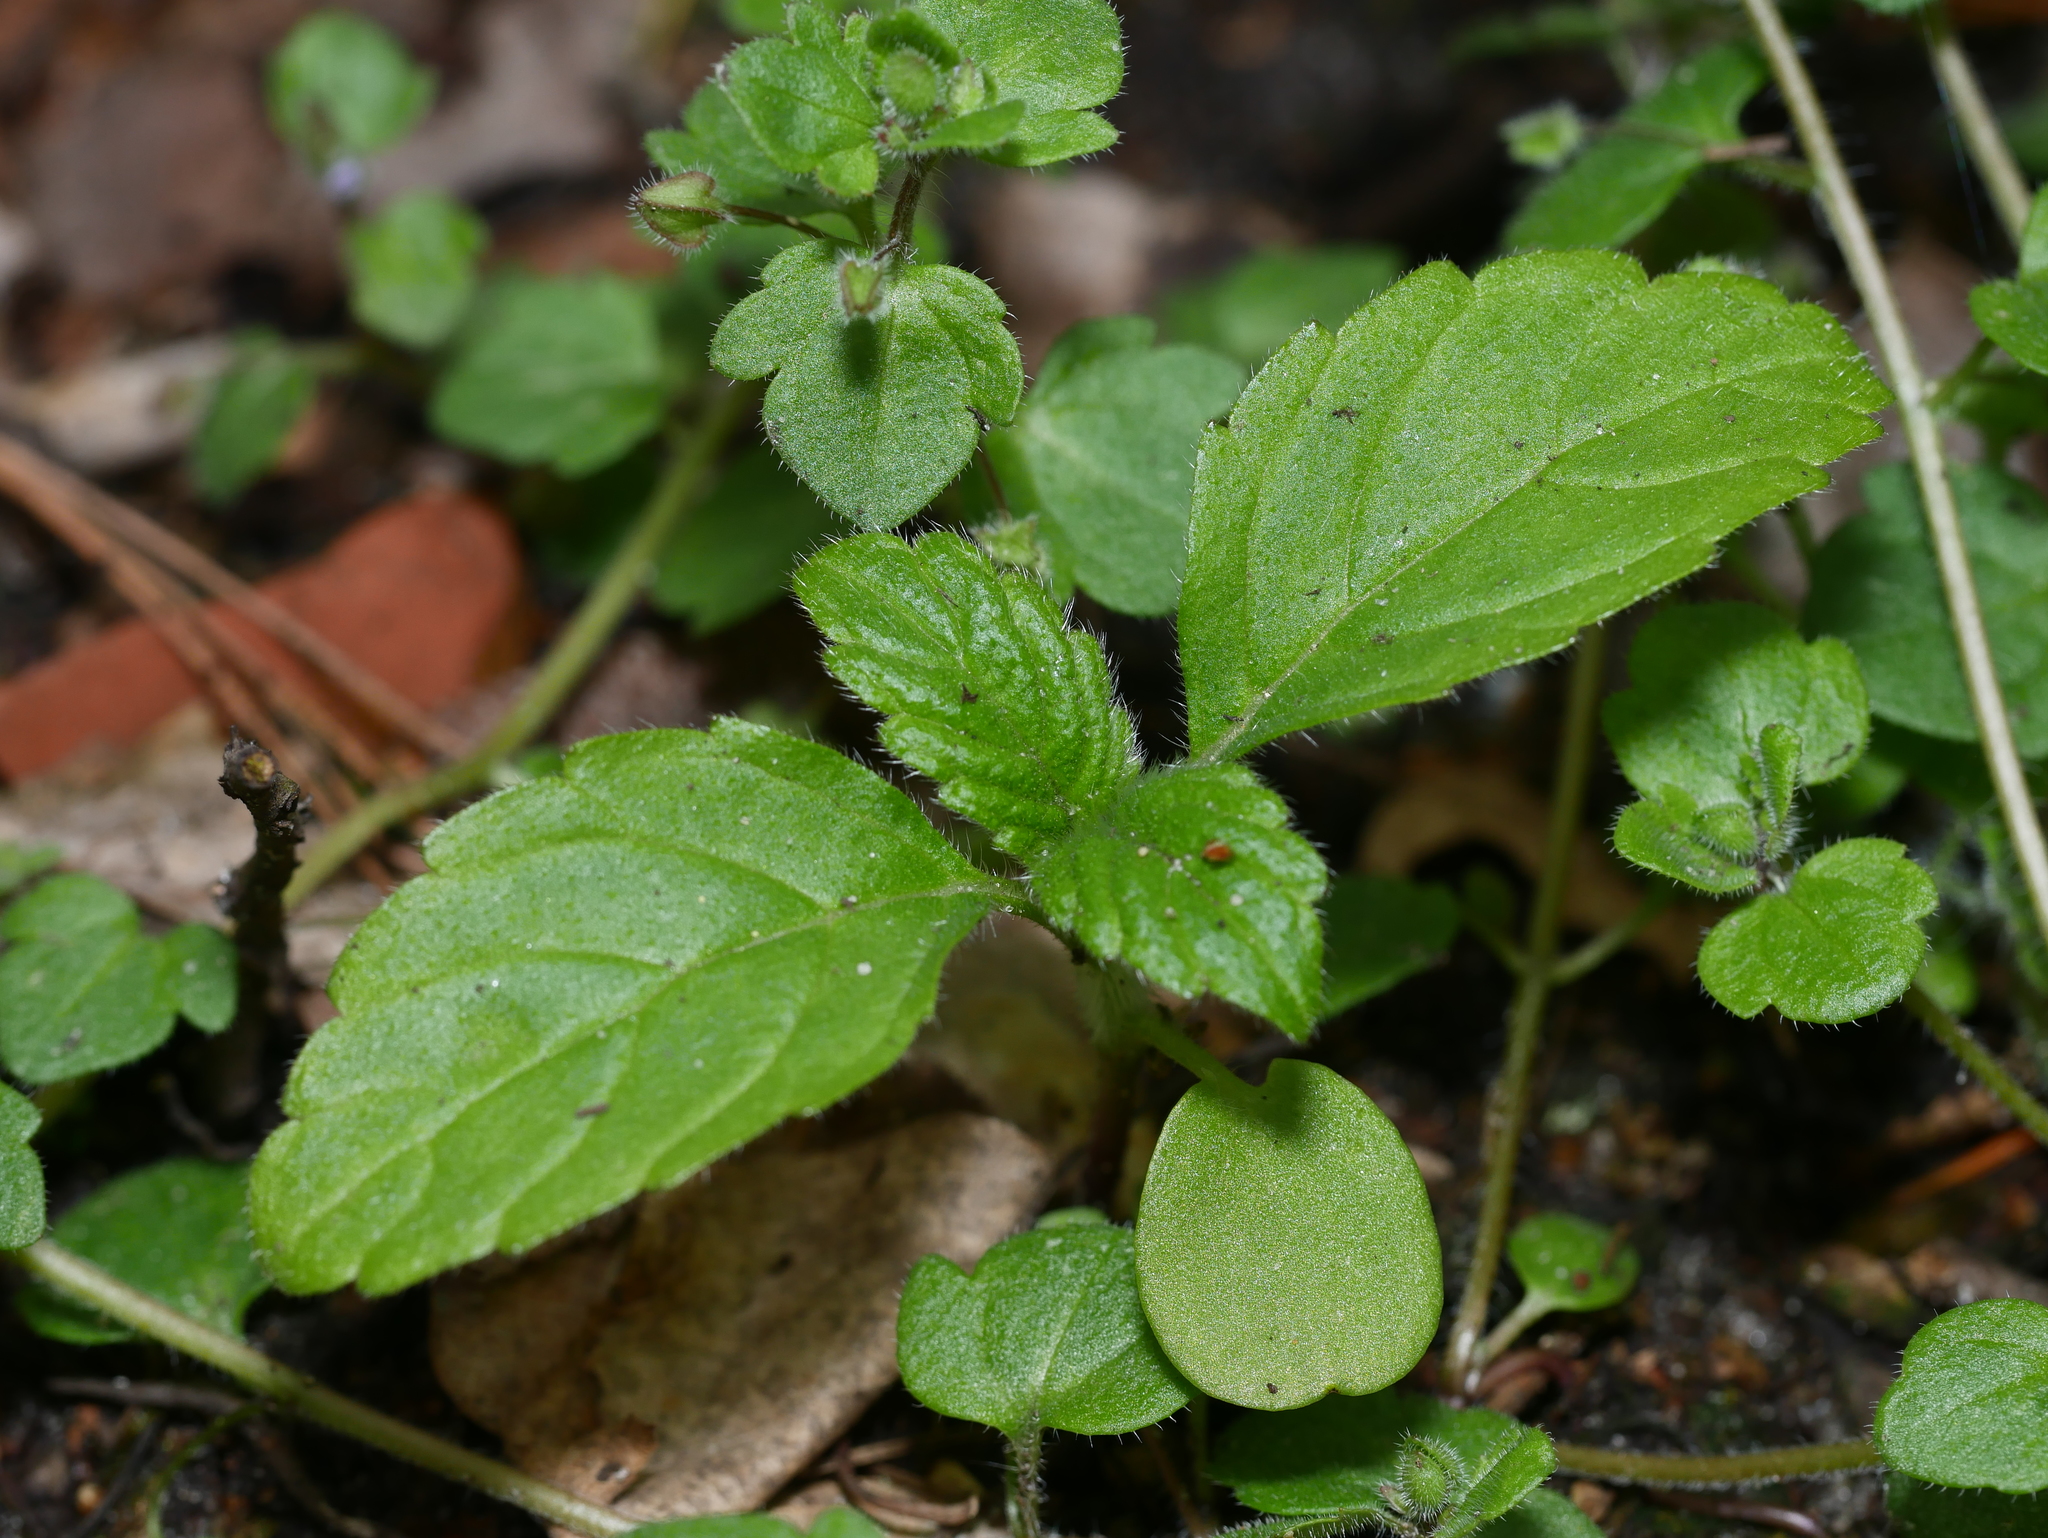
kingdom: Plantae
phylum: Tracheophyta
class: Magnoliopsida
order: Lamiales
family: Plantaginaceae
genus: Veronica
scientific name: Veronica montana
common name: Wood speedwell
